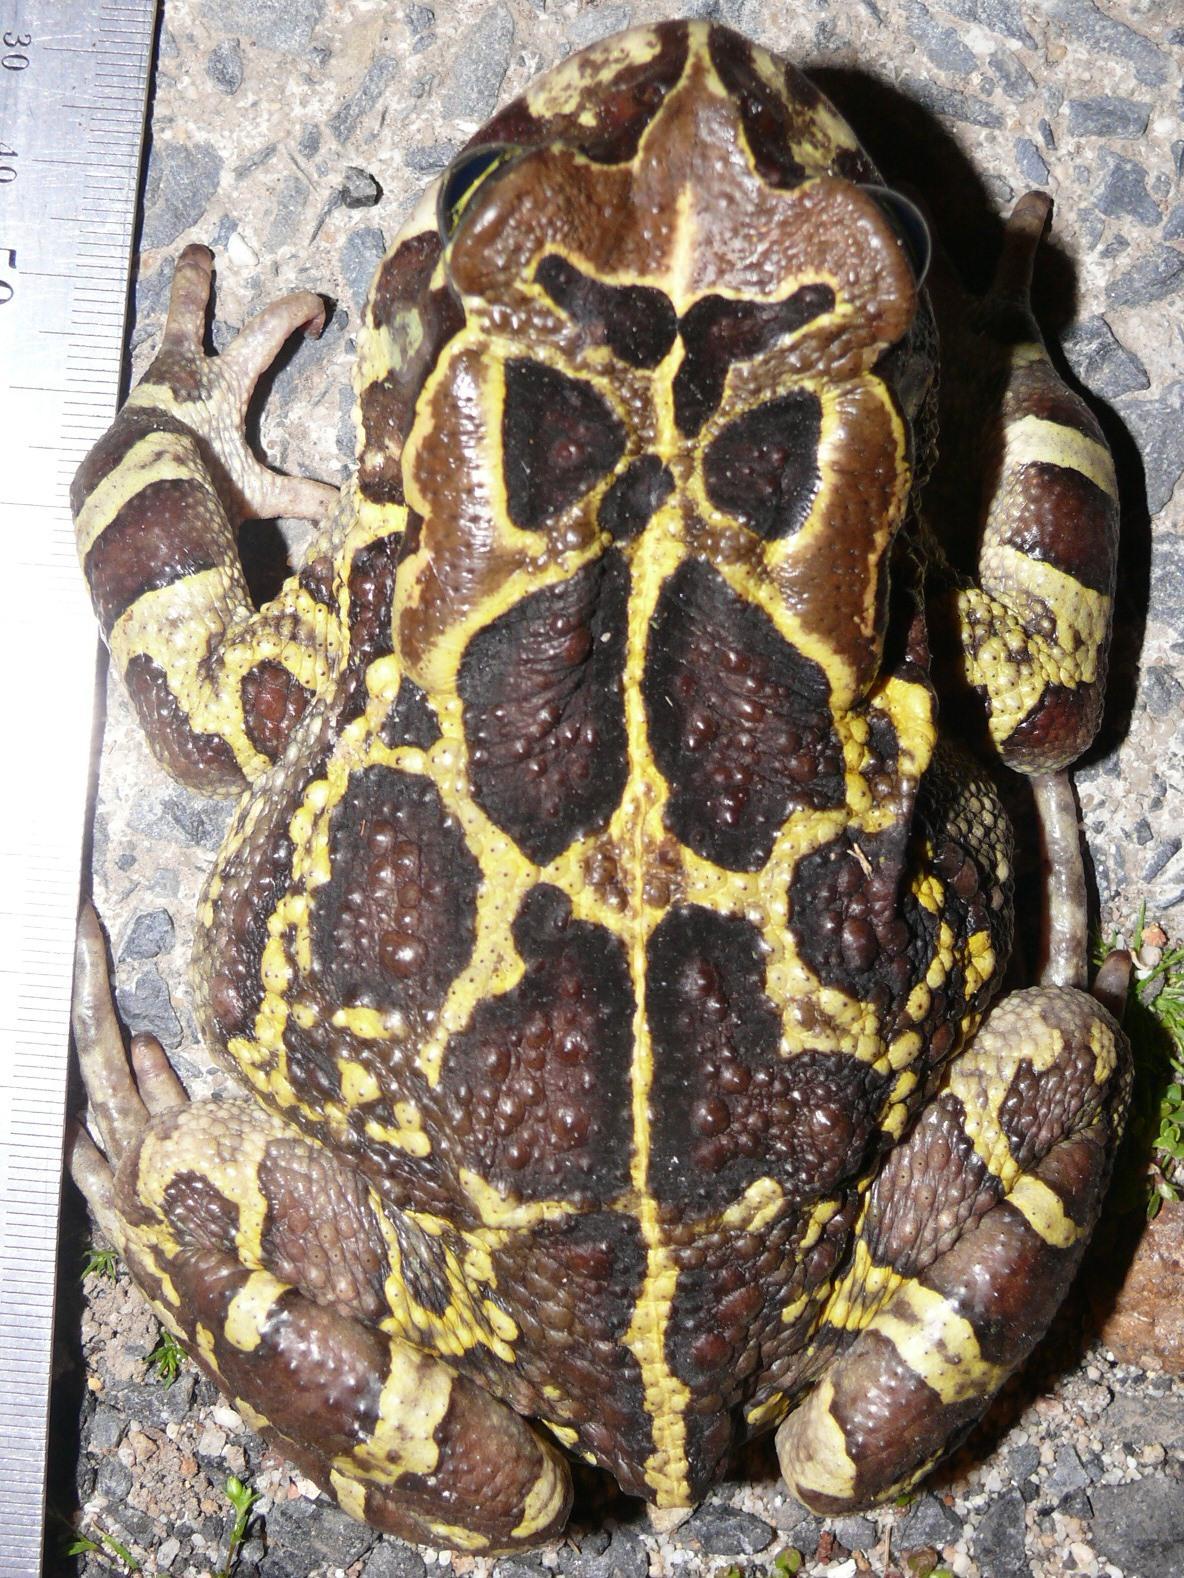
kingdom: Animalia
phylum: Chordata
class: Amphibia
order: Anura
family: Bufonidae
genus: Sclerophrys
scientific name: Sclerophrys pantherina
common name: Panther toad
